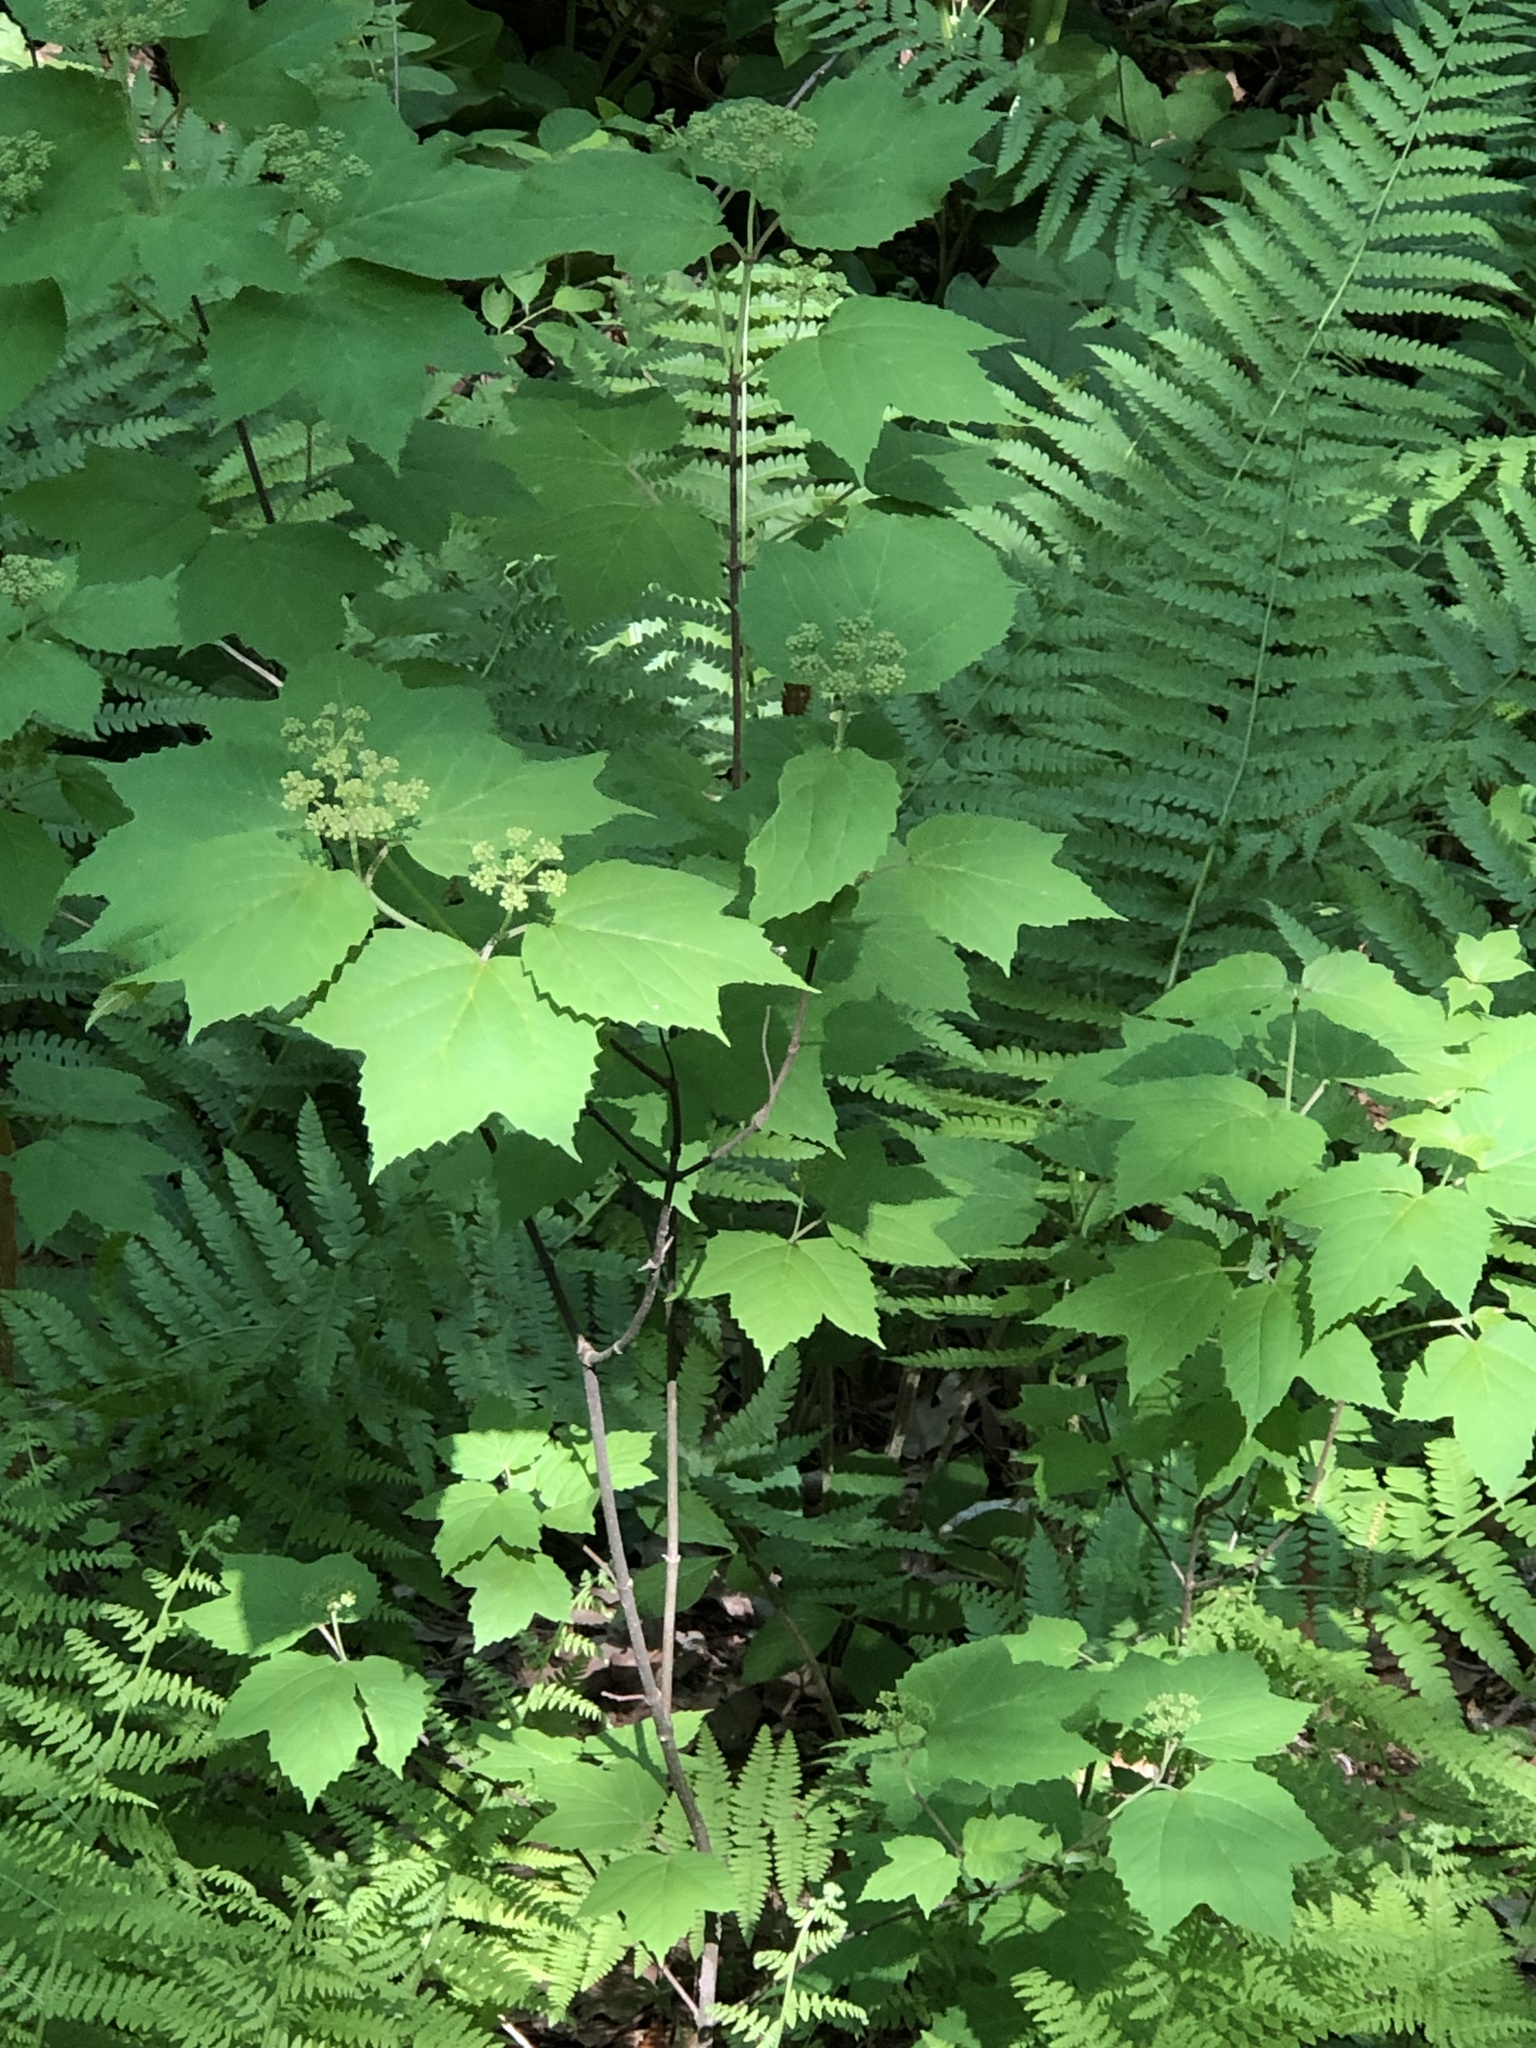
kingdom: Plantae
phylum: Tracheophyta
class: Magnoliopsida
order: Dipsacales
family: Viburnaceae
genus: Viburnum
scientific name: Viburnum acerifolium
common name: Dockmackie
